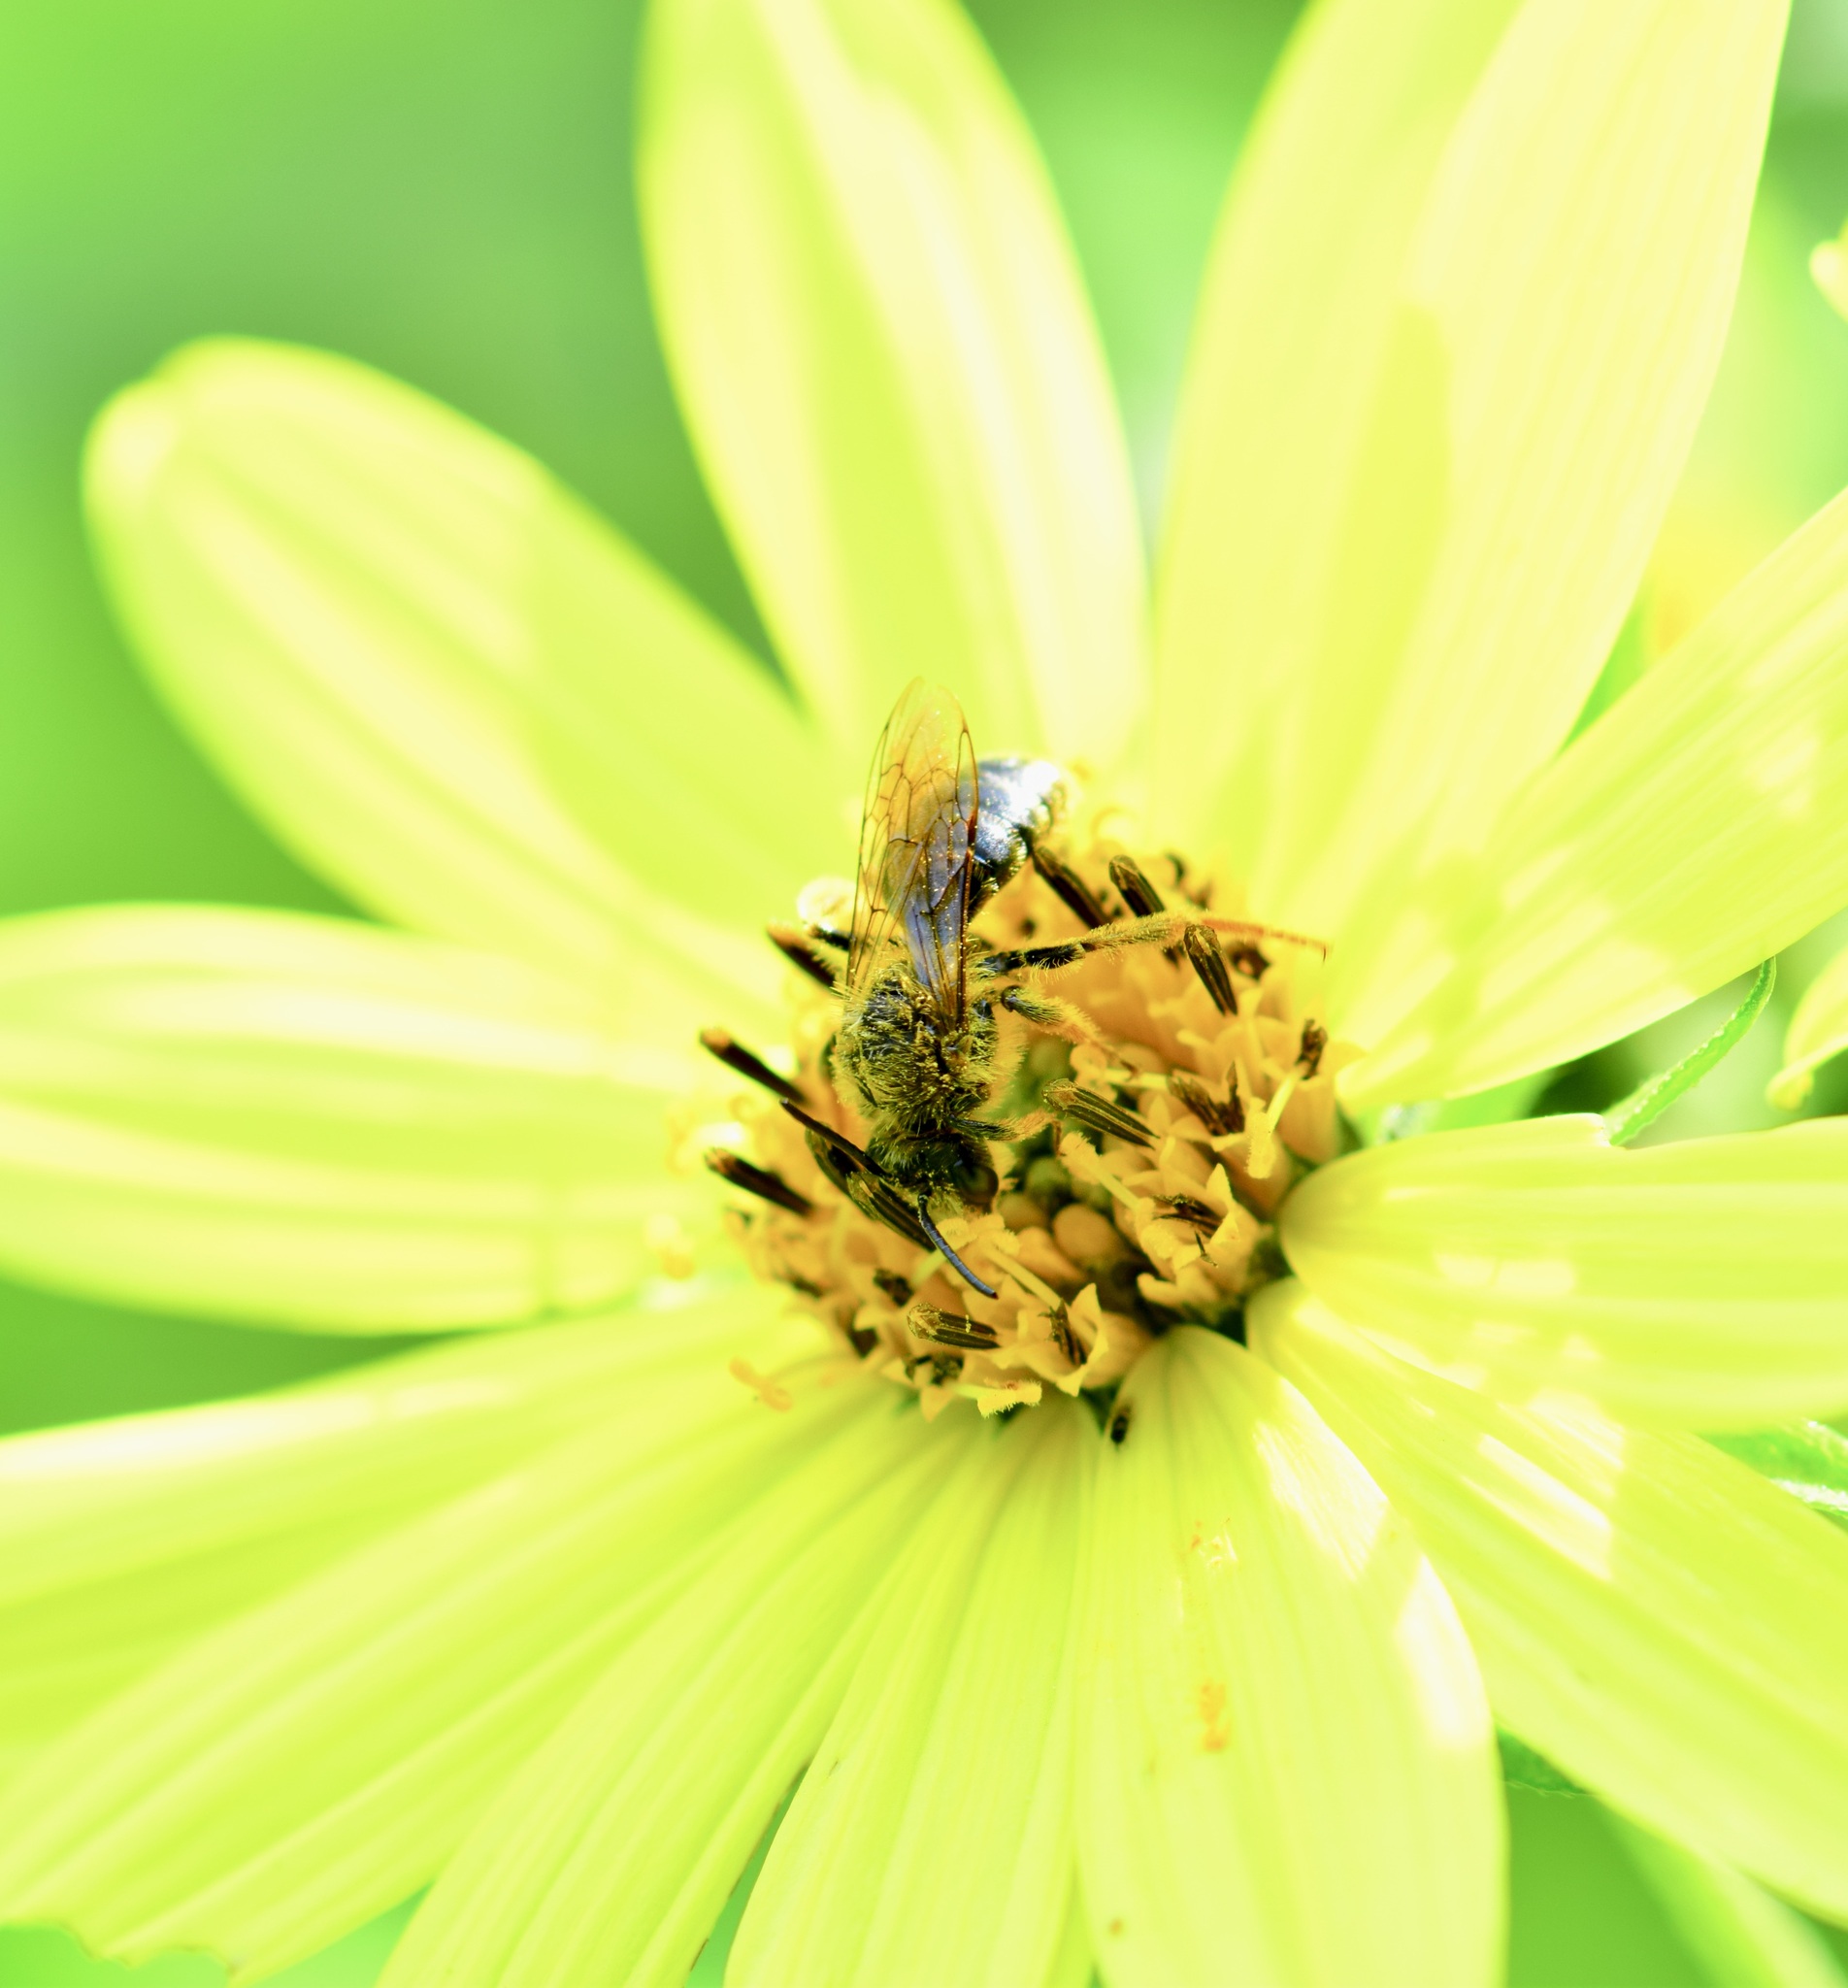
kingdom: Animalia
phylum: Arthropoda
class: Insecta
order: Hymenoptera
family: Andrenidae
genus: Andrena
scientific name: Andrena helianthi
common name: Sunflower mining bee
